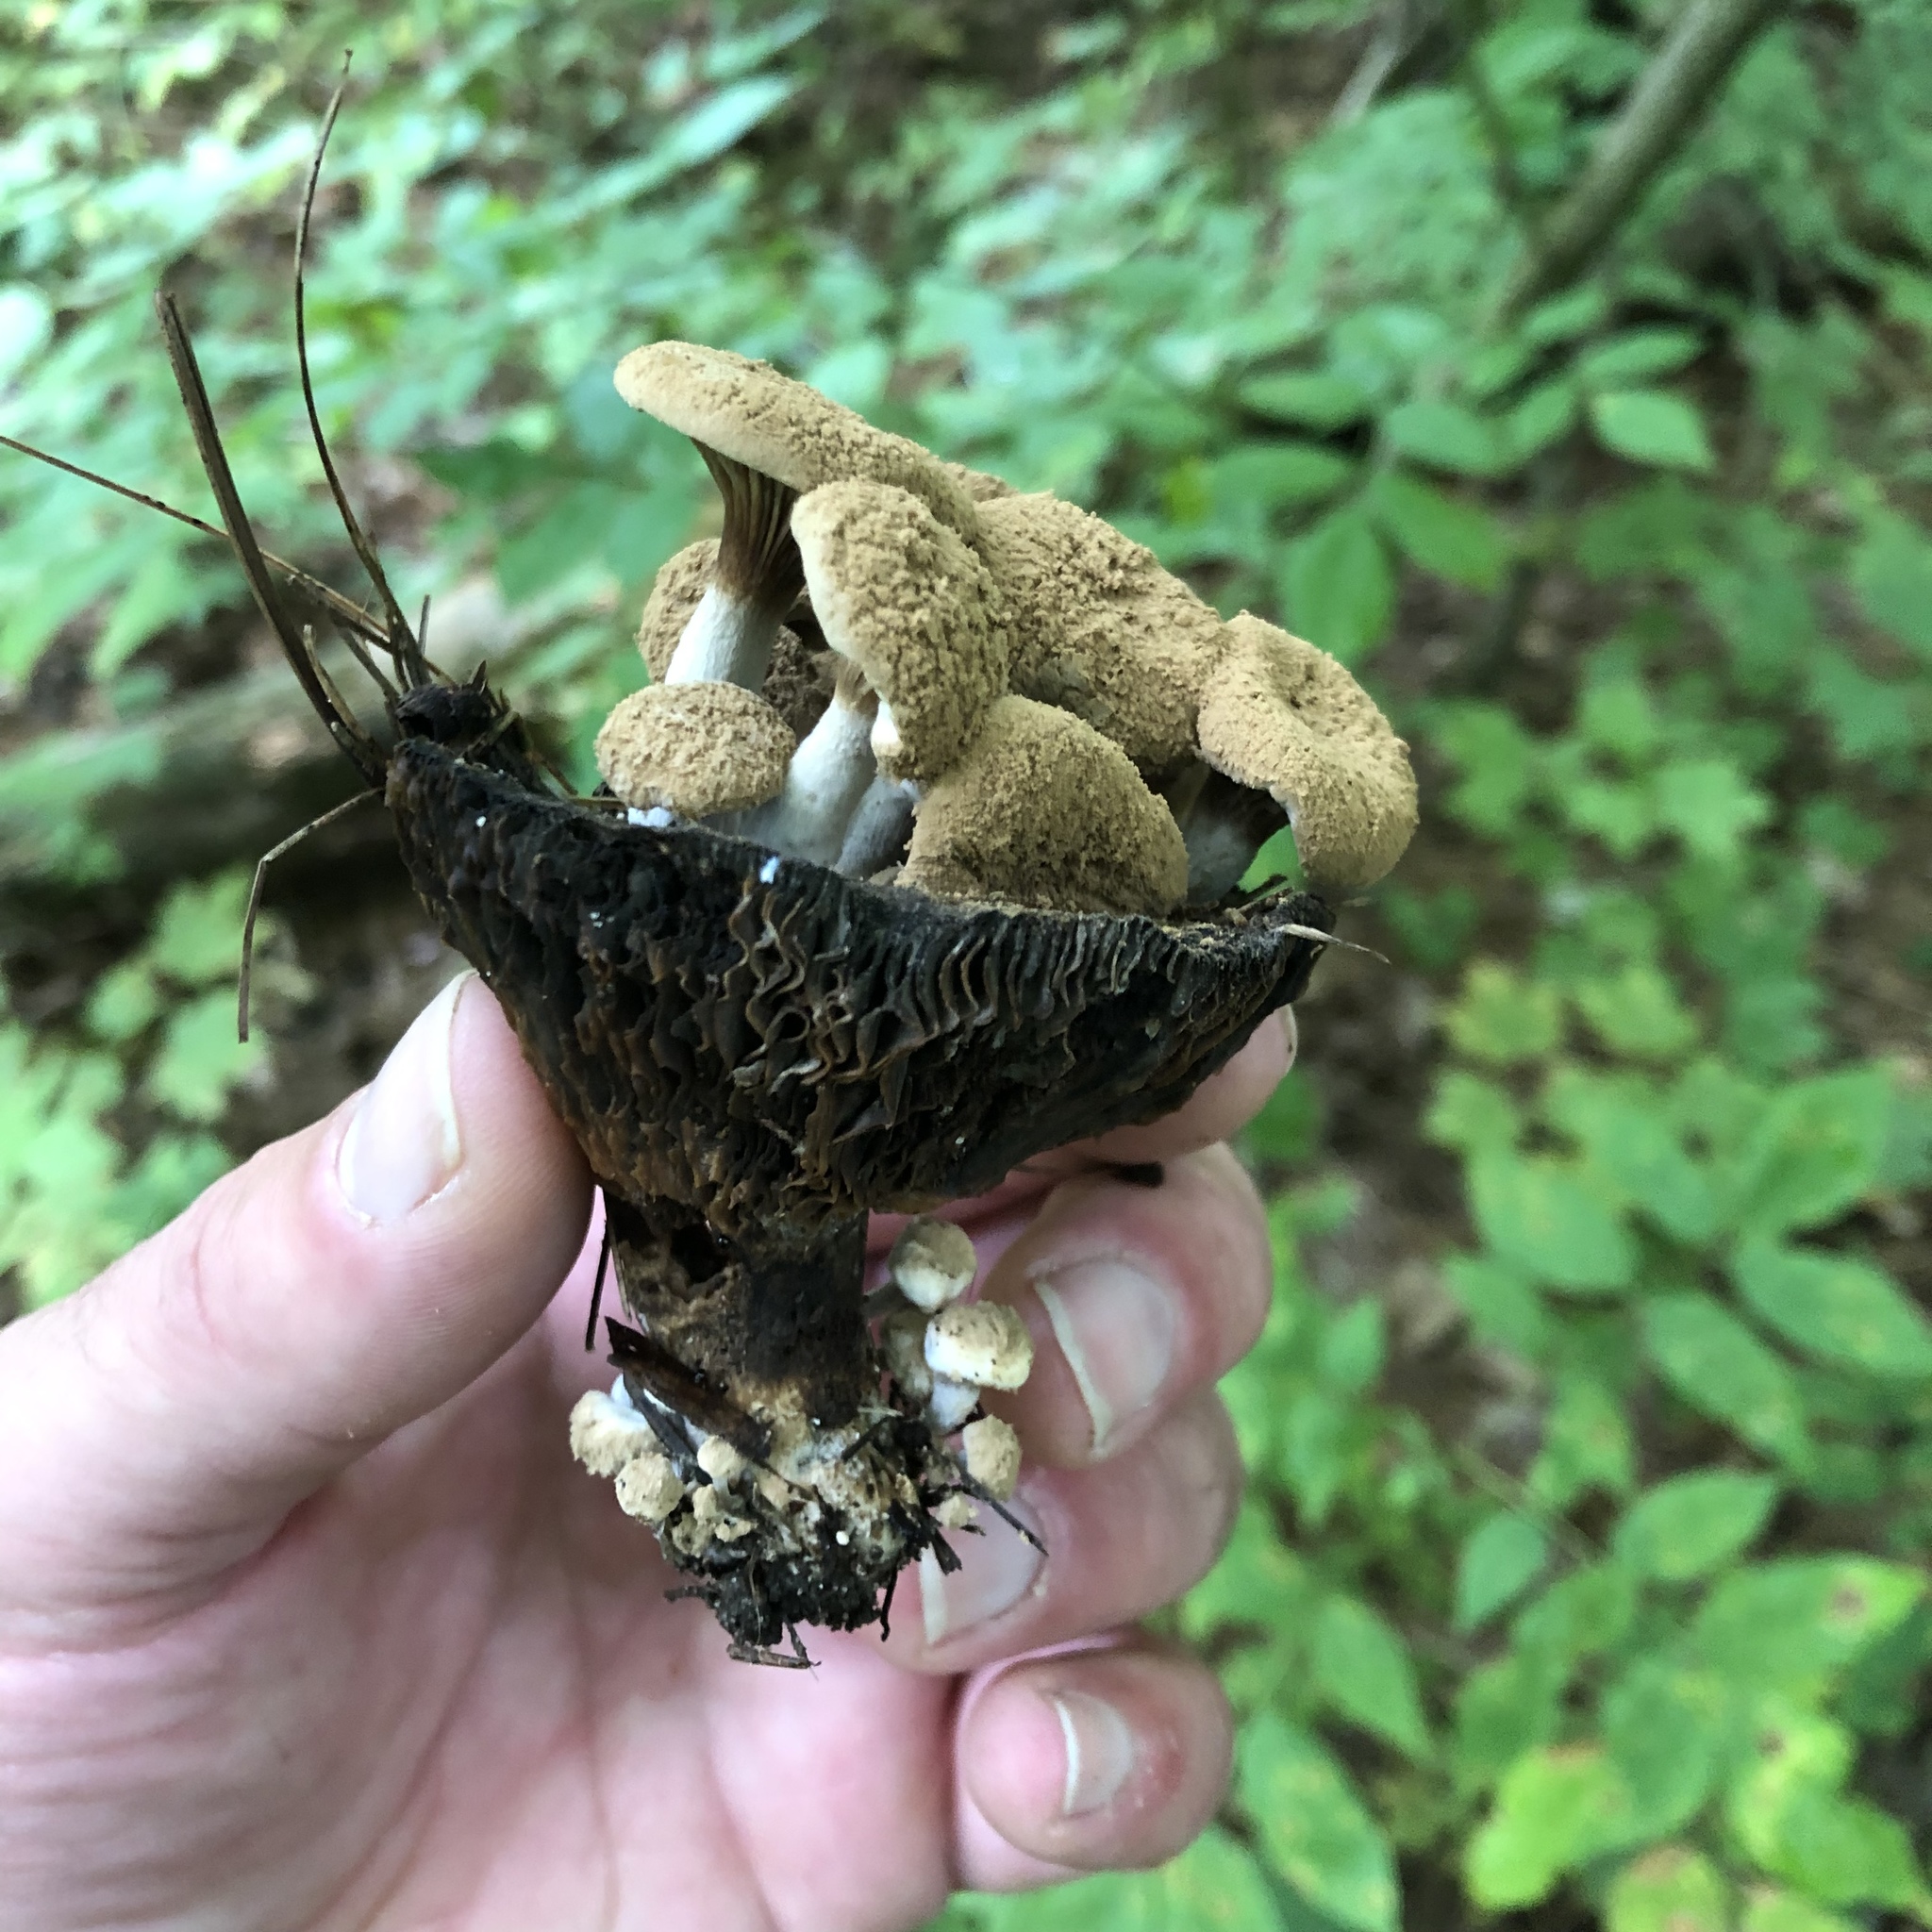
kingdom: Fungi
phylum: Basidiomycota
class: Agaricomycetes
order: Agaricales
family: Lyophyllaceae
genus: Asterophora
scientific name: Asterophora lycoperdoides
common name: Pick-a-back toadstool
